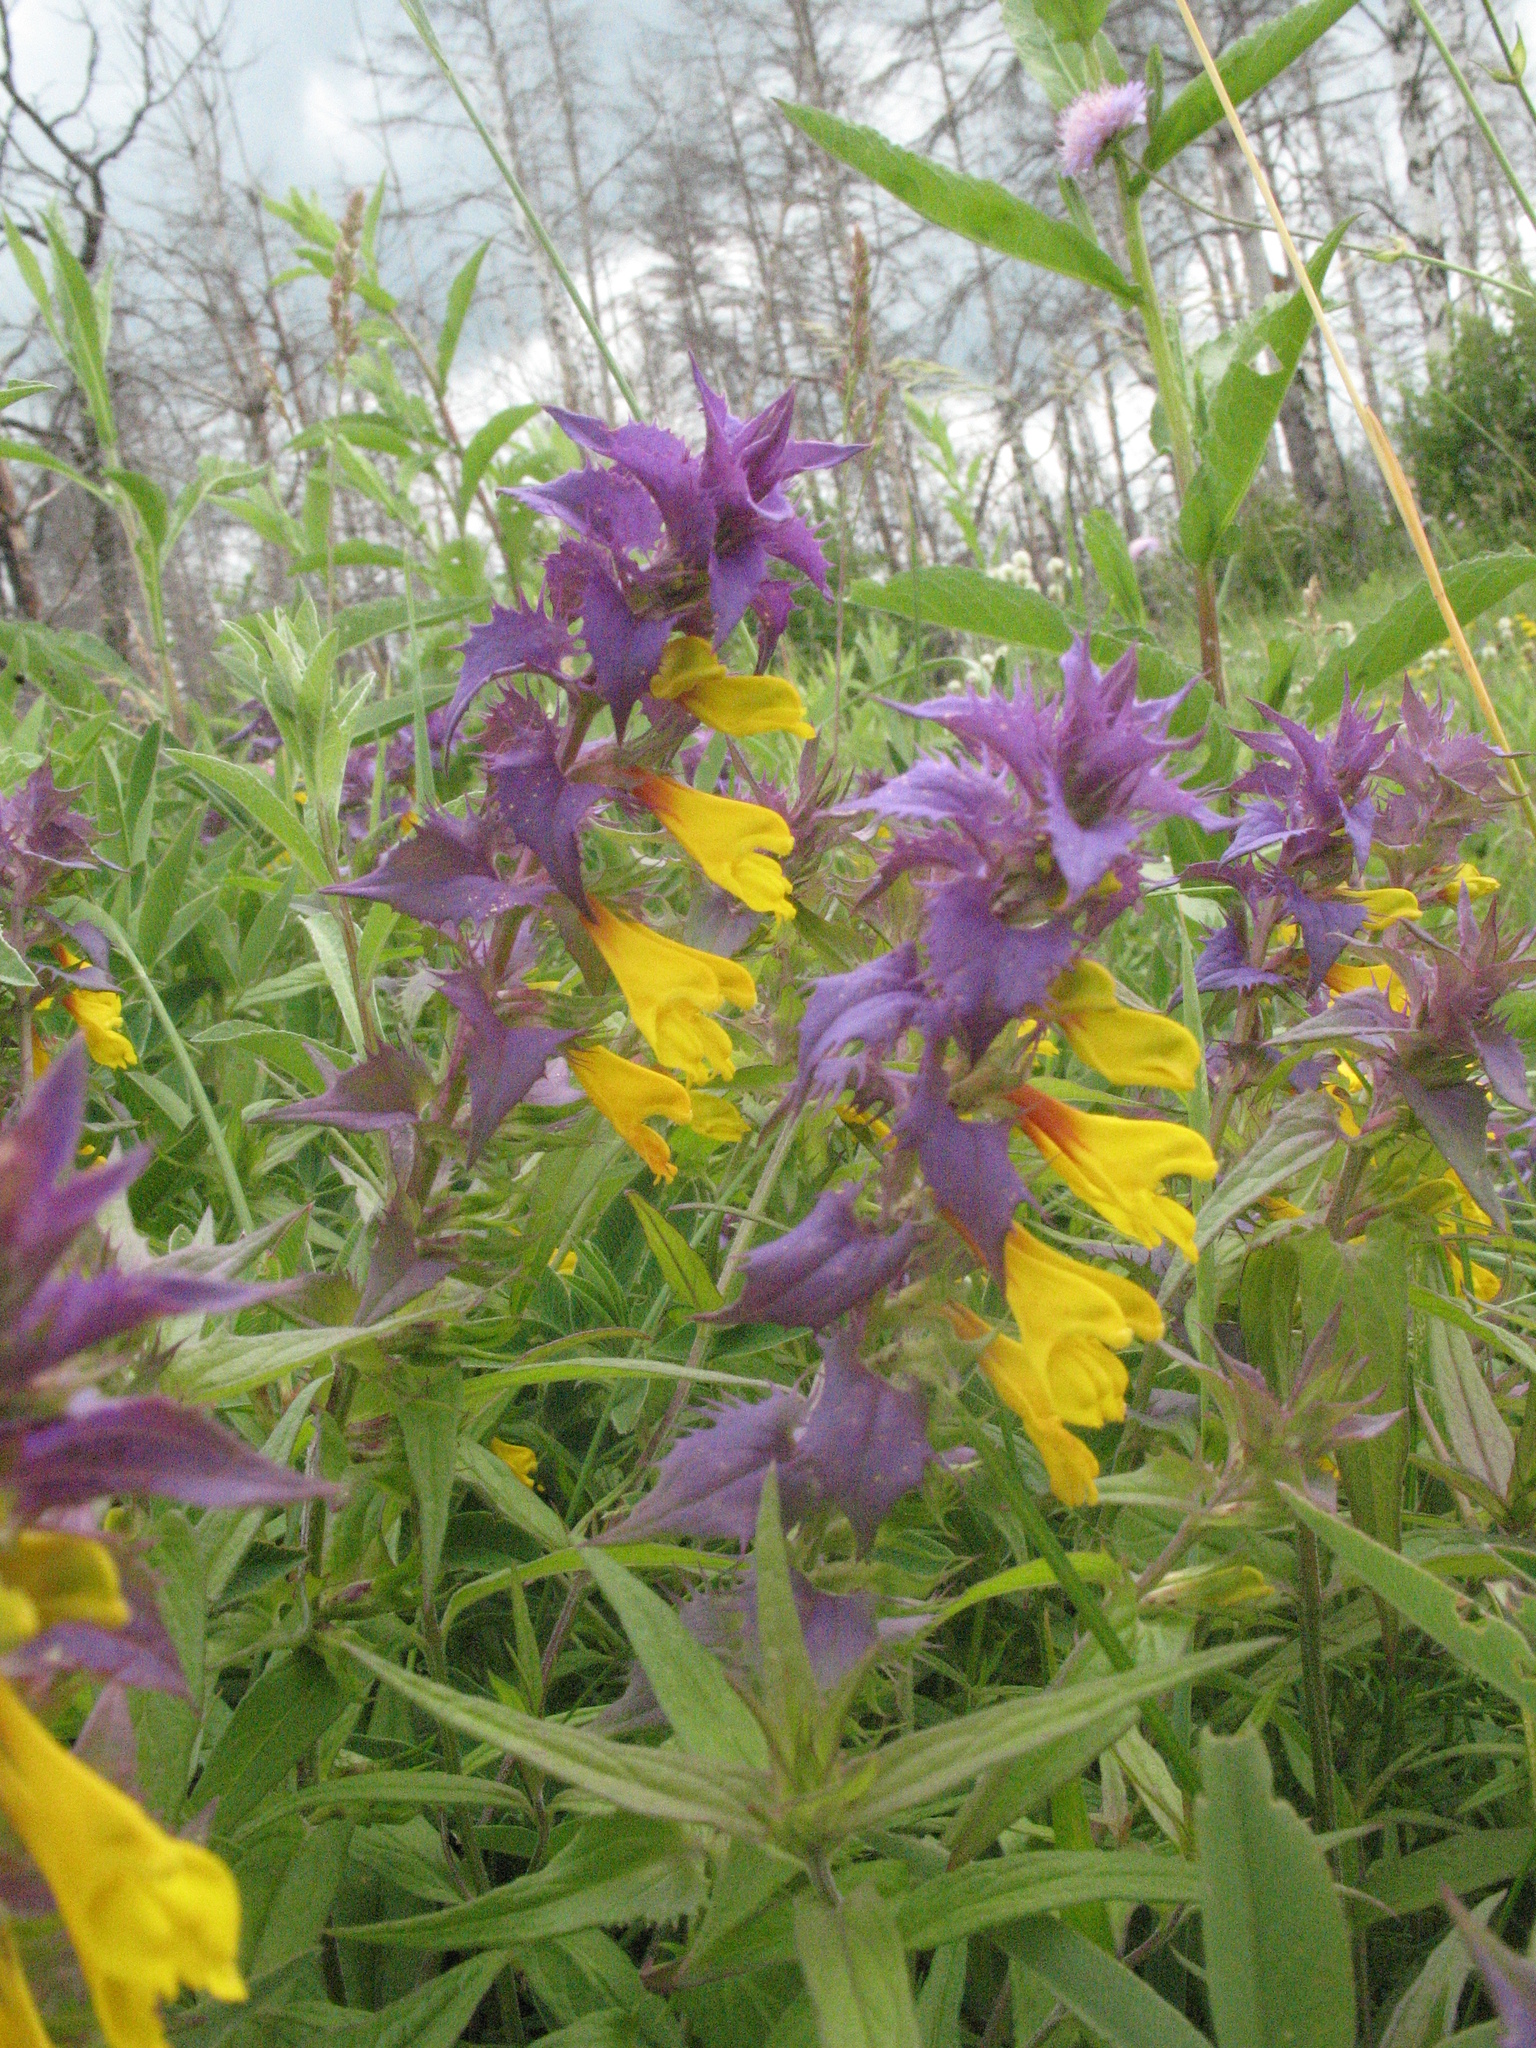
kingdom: Plantae
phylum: Tracheophyta
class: Magnoliopsida
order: Lamiales
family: Orobanchaceae
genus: Melampyrum
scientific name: Melampyrum nemorosum
